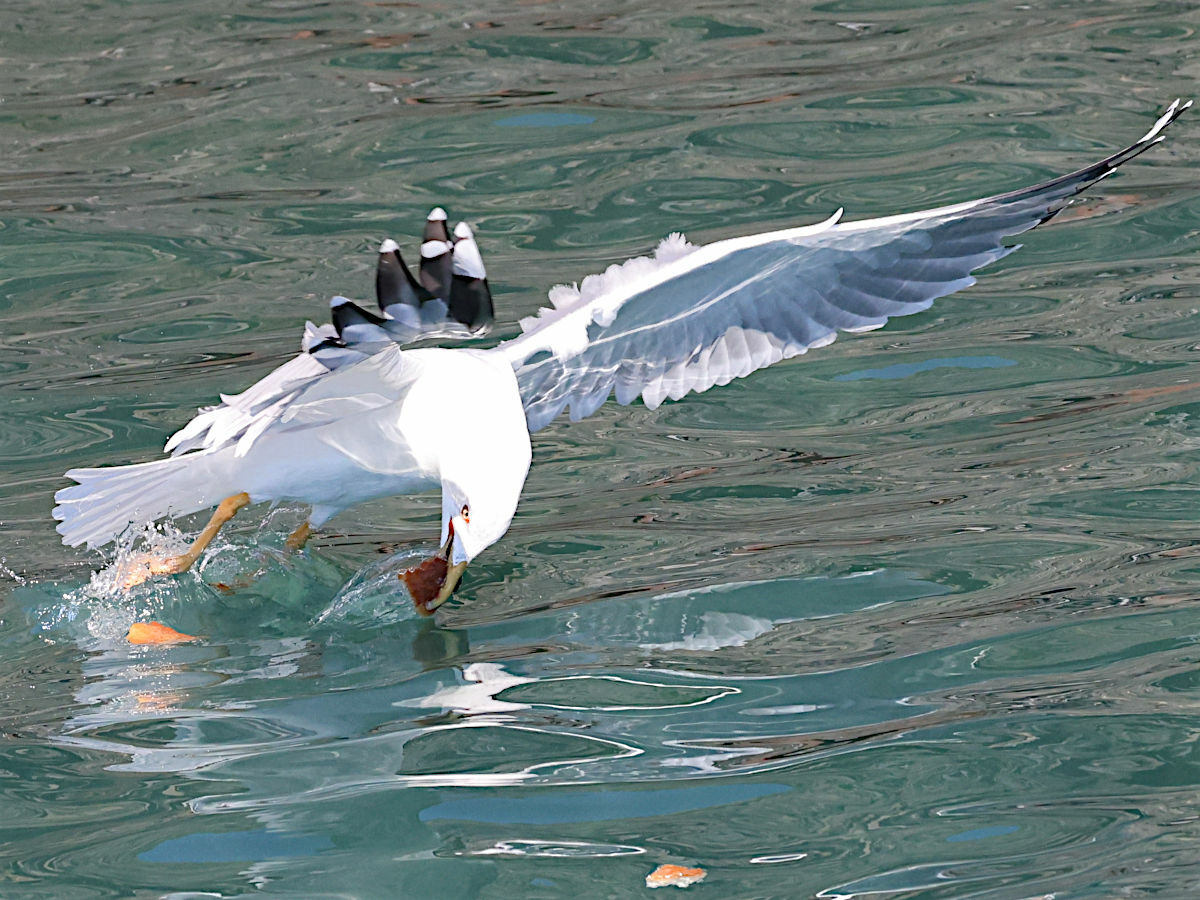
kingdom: Animalia
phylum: Chordata
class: Aves
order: Charadriiformes
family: Laridae
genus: Larus
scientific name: Larus michahellis
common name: Yellow-legged gull
